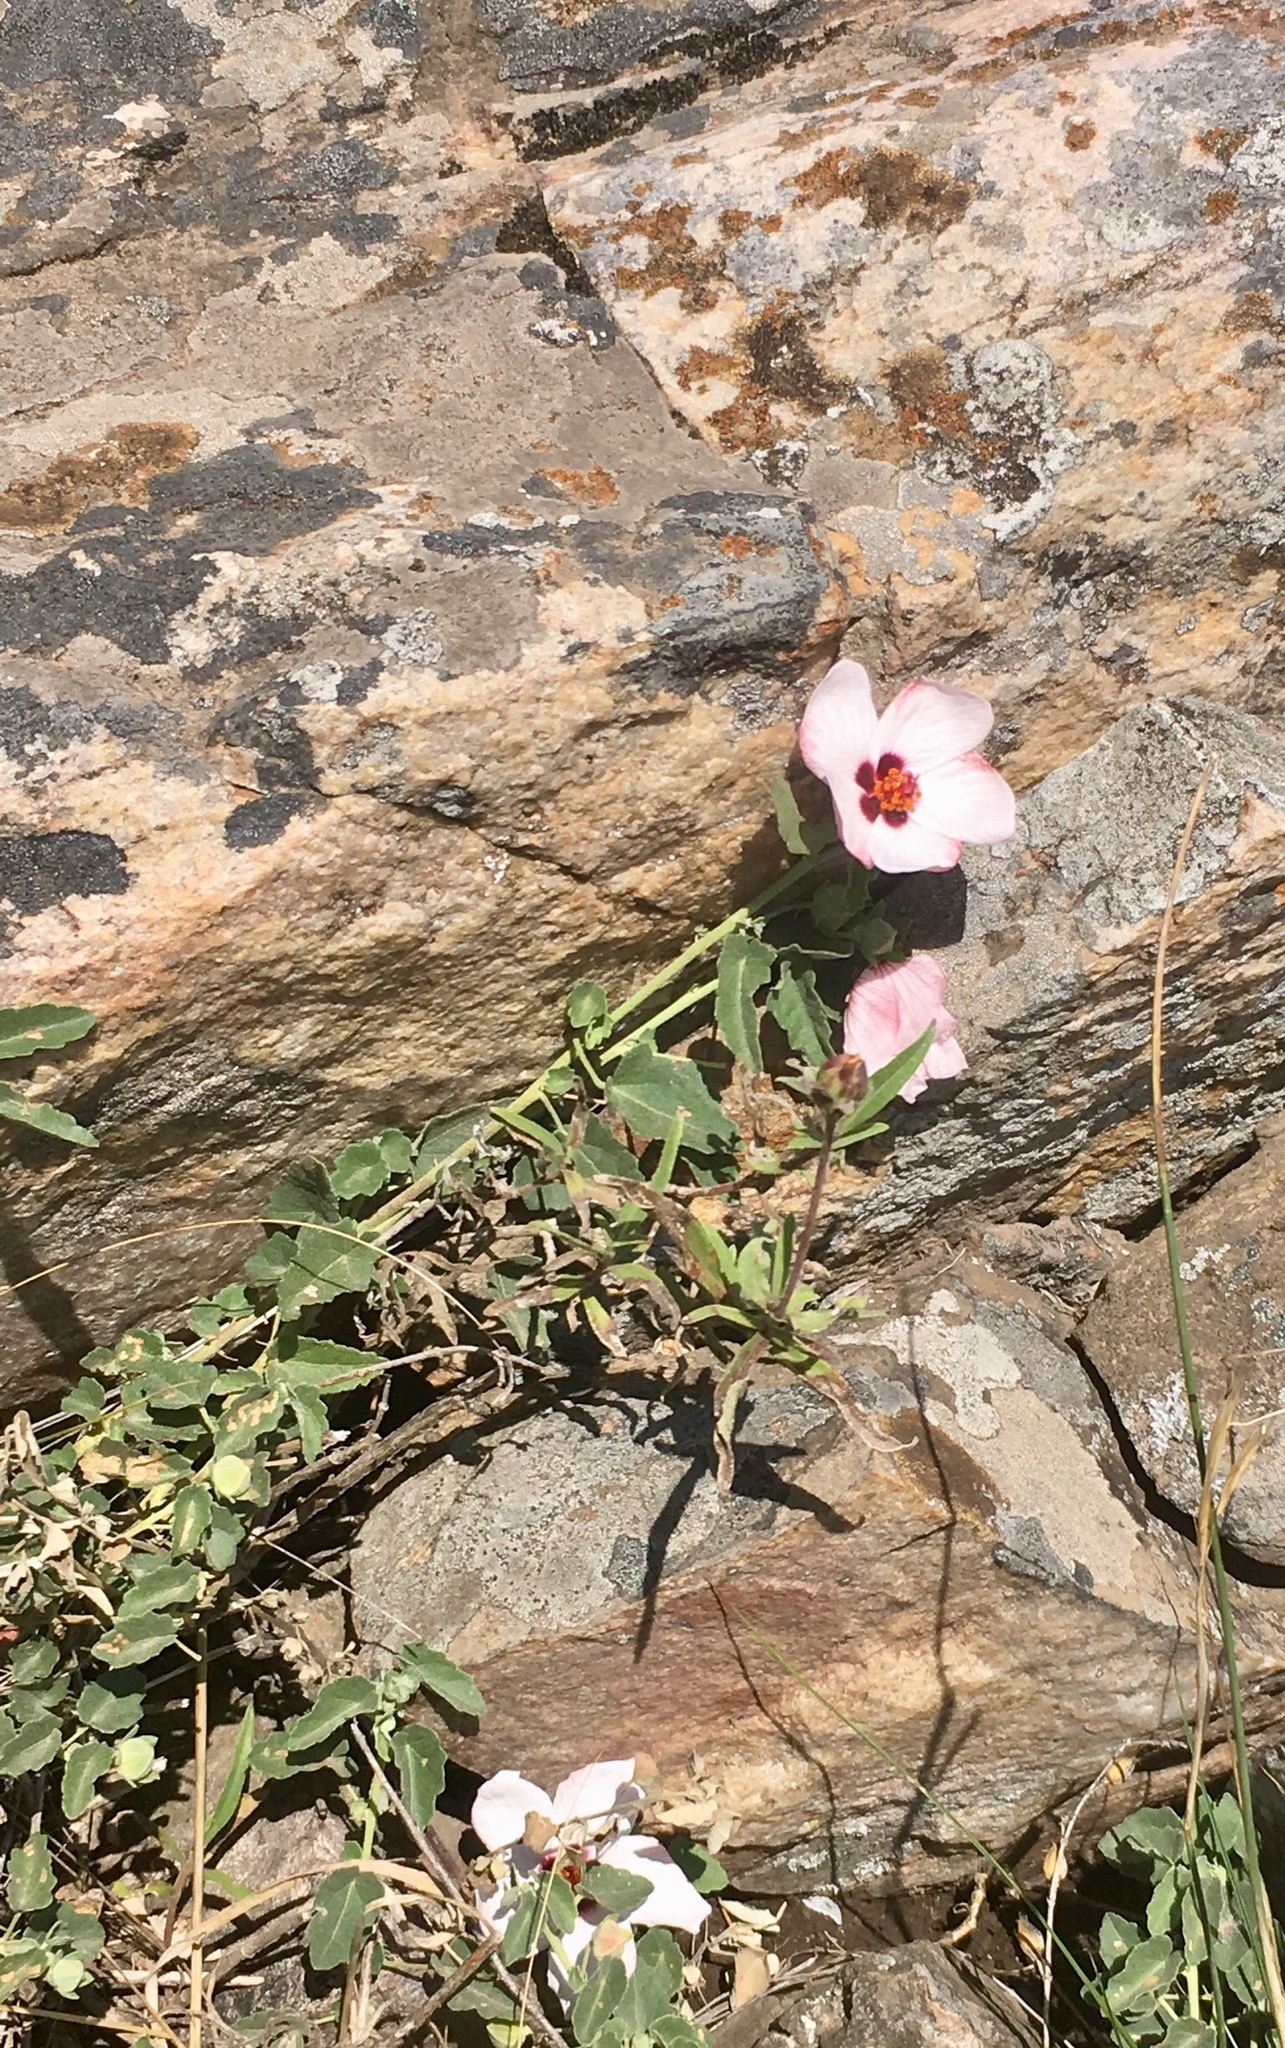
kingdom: Plantae
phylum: Tracheophyta
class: Magnoliopsida
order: Malvales
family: Malvaceae
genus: Pavonia
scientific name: Pavonia cymbalaria
